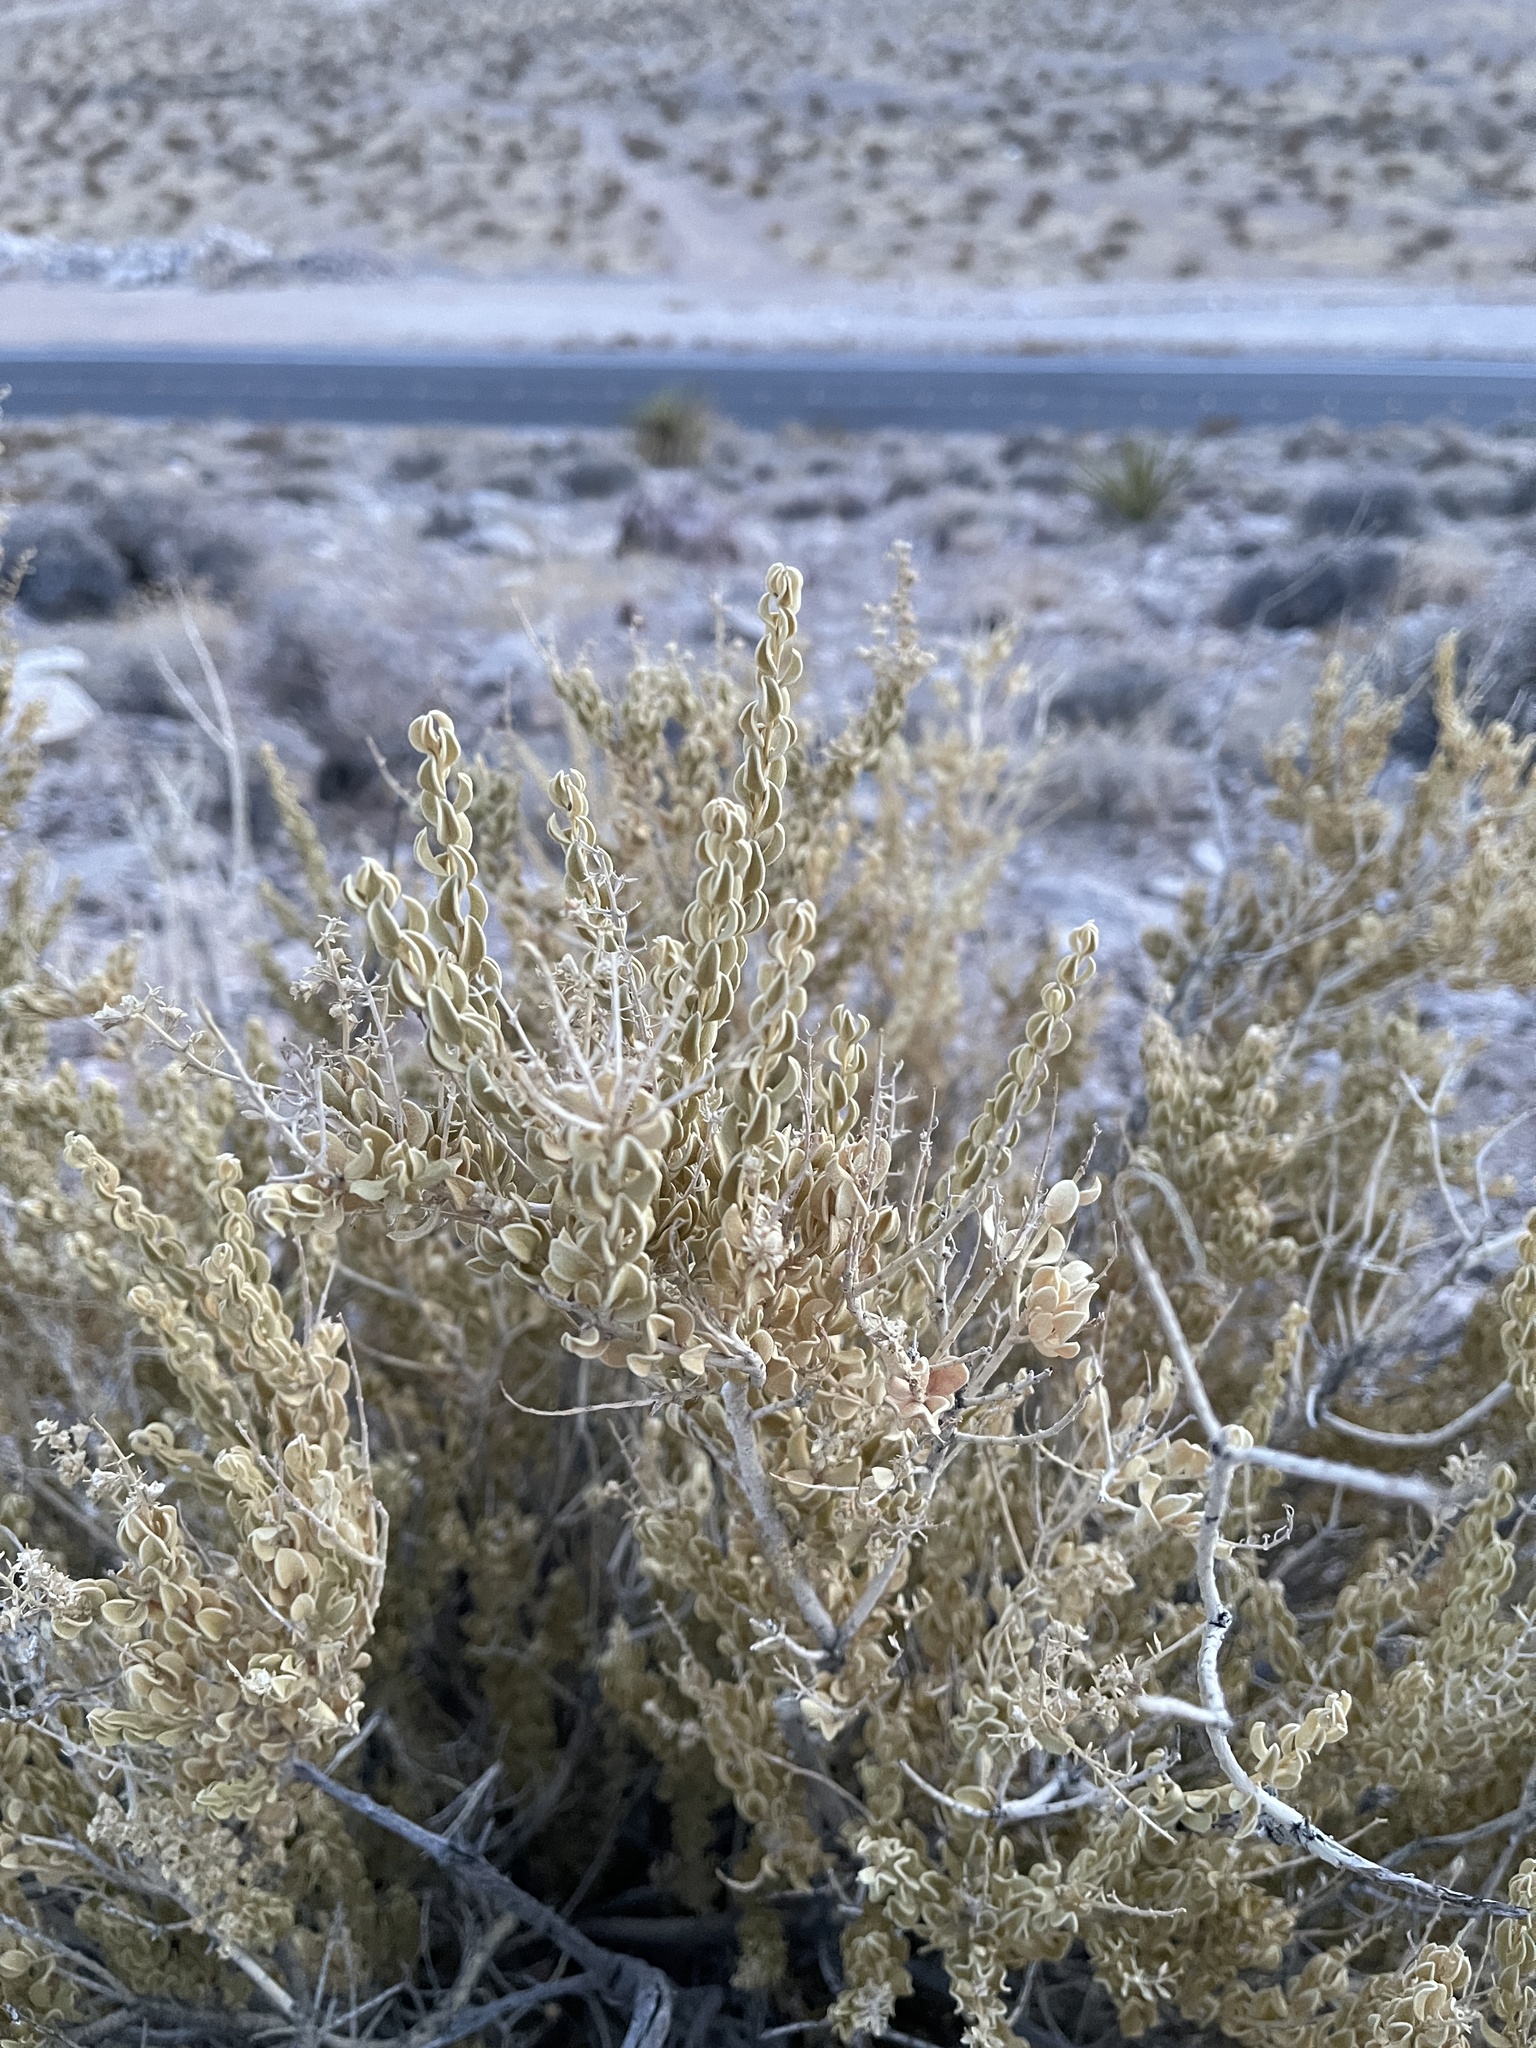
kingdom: Plantae
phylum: Tracheophyta
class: Magnoliopsida
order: Celastrales
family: Celastraceae
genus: Mortonia
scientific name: Mortonia utahensis
